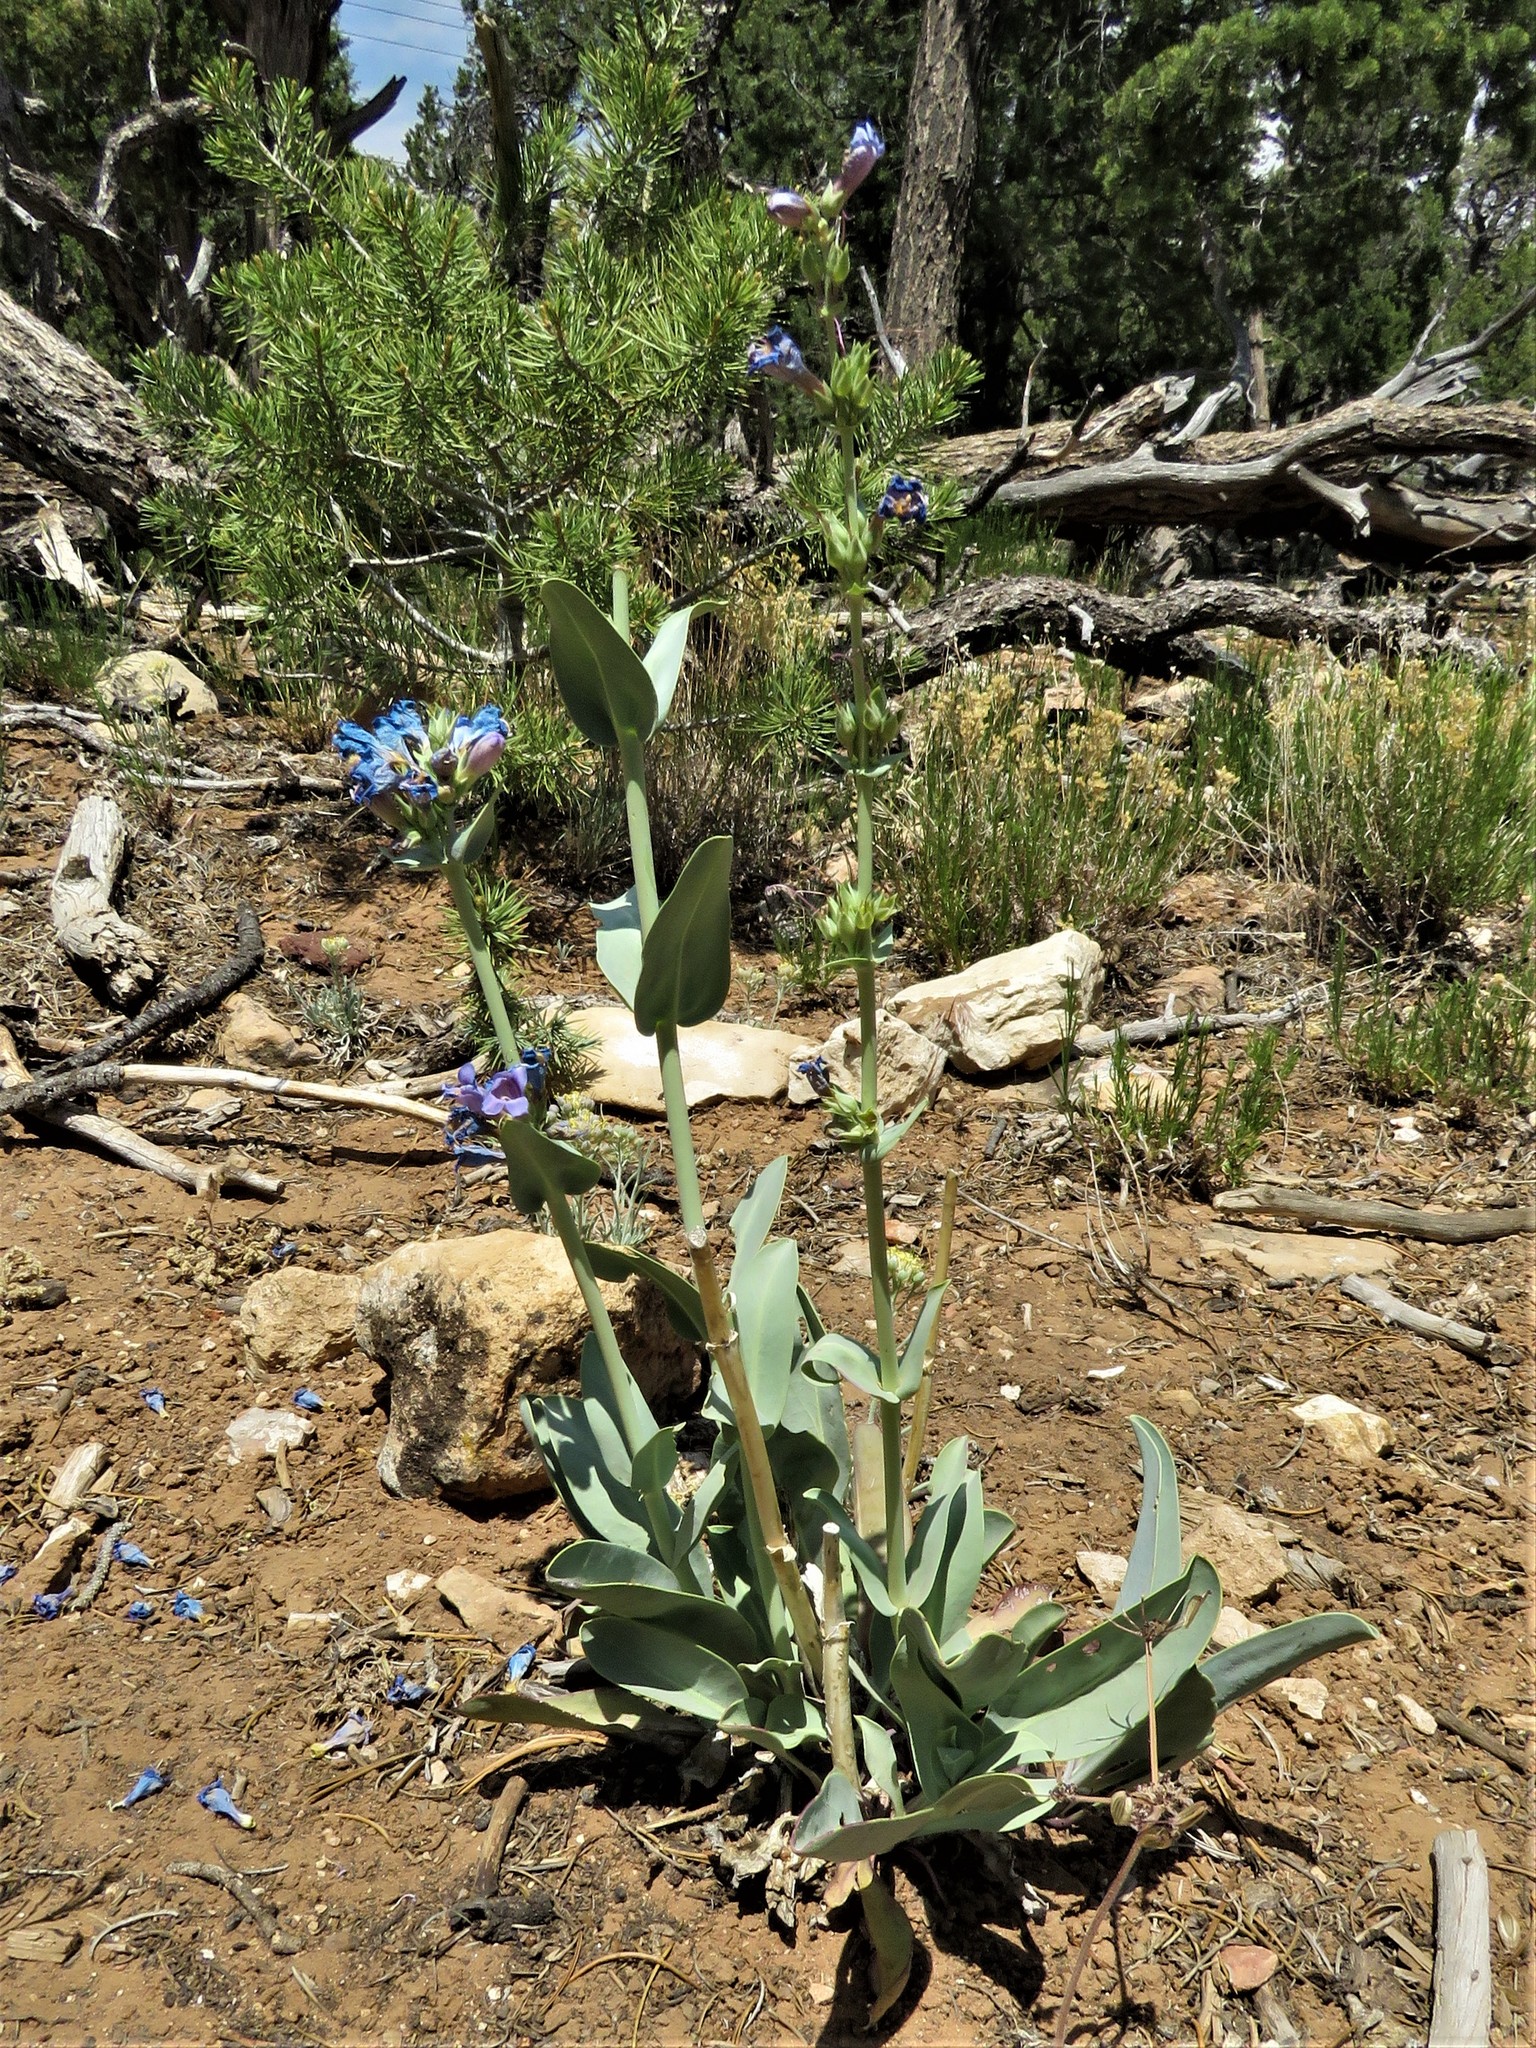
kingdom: Plantae
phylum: Tracheophyta
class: Magnoliopsida
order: Lamiales
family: Plantaginaceae
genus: Penstemon
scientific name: Penstemon pachyphyllus
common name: Thick-leaf penstemon
